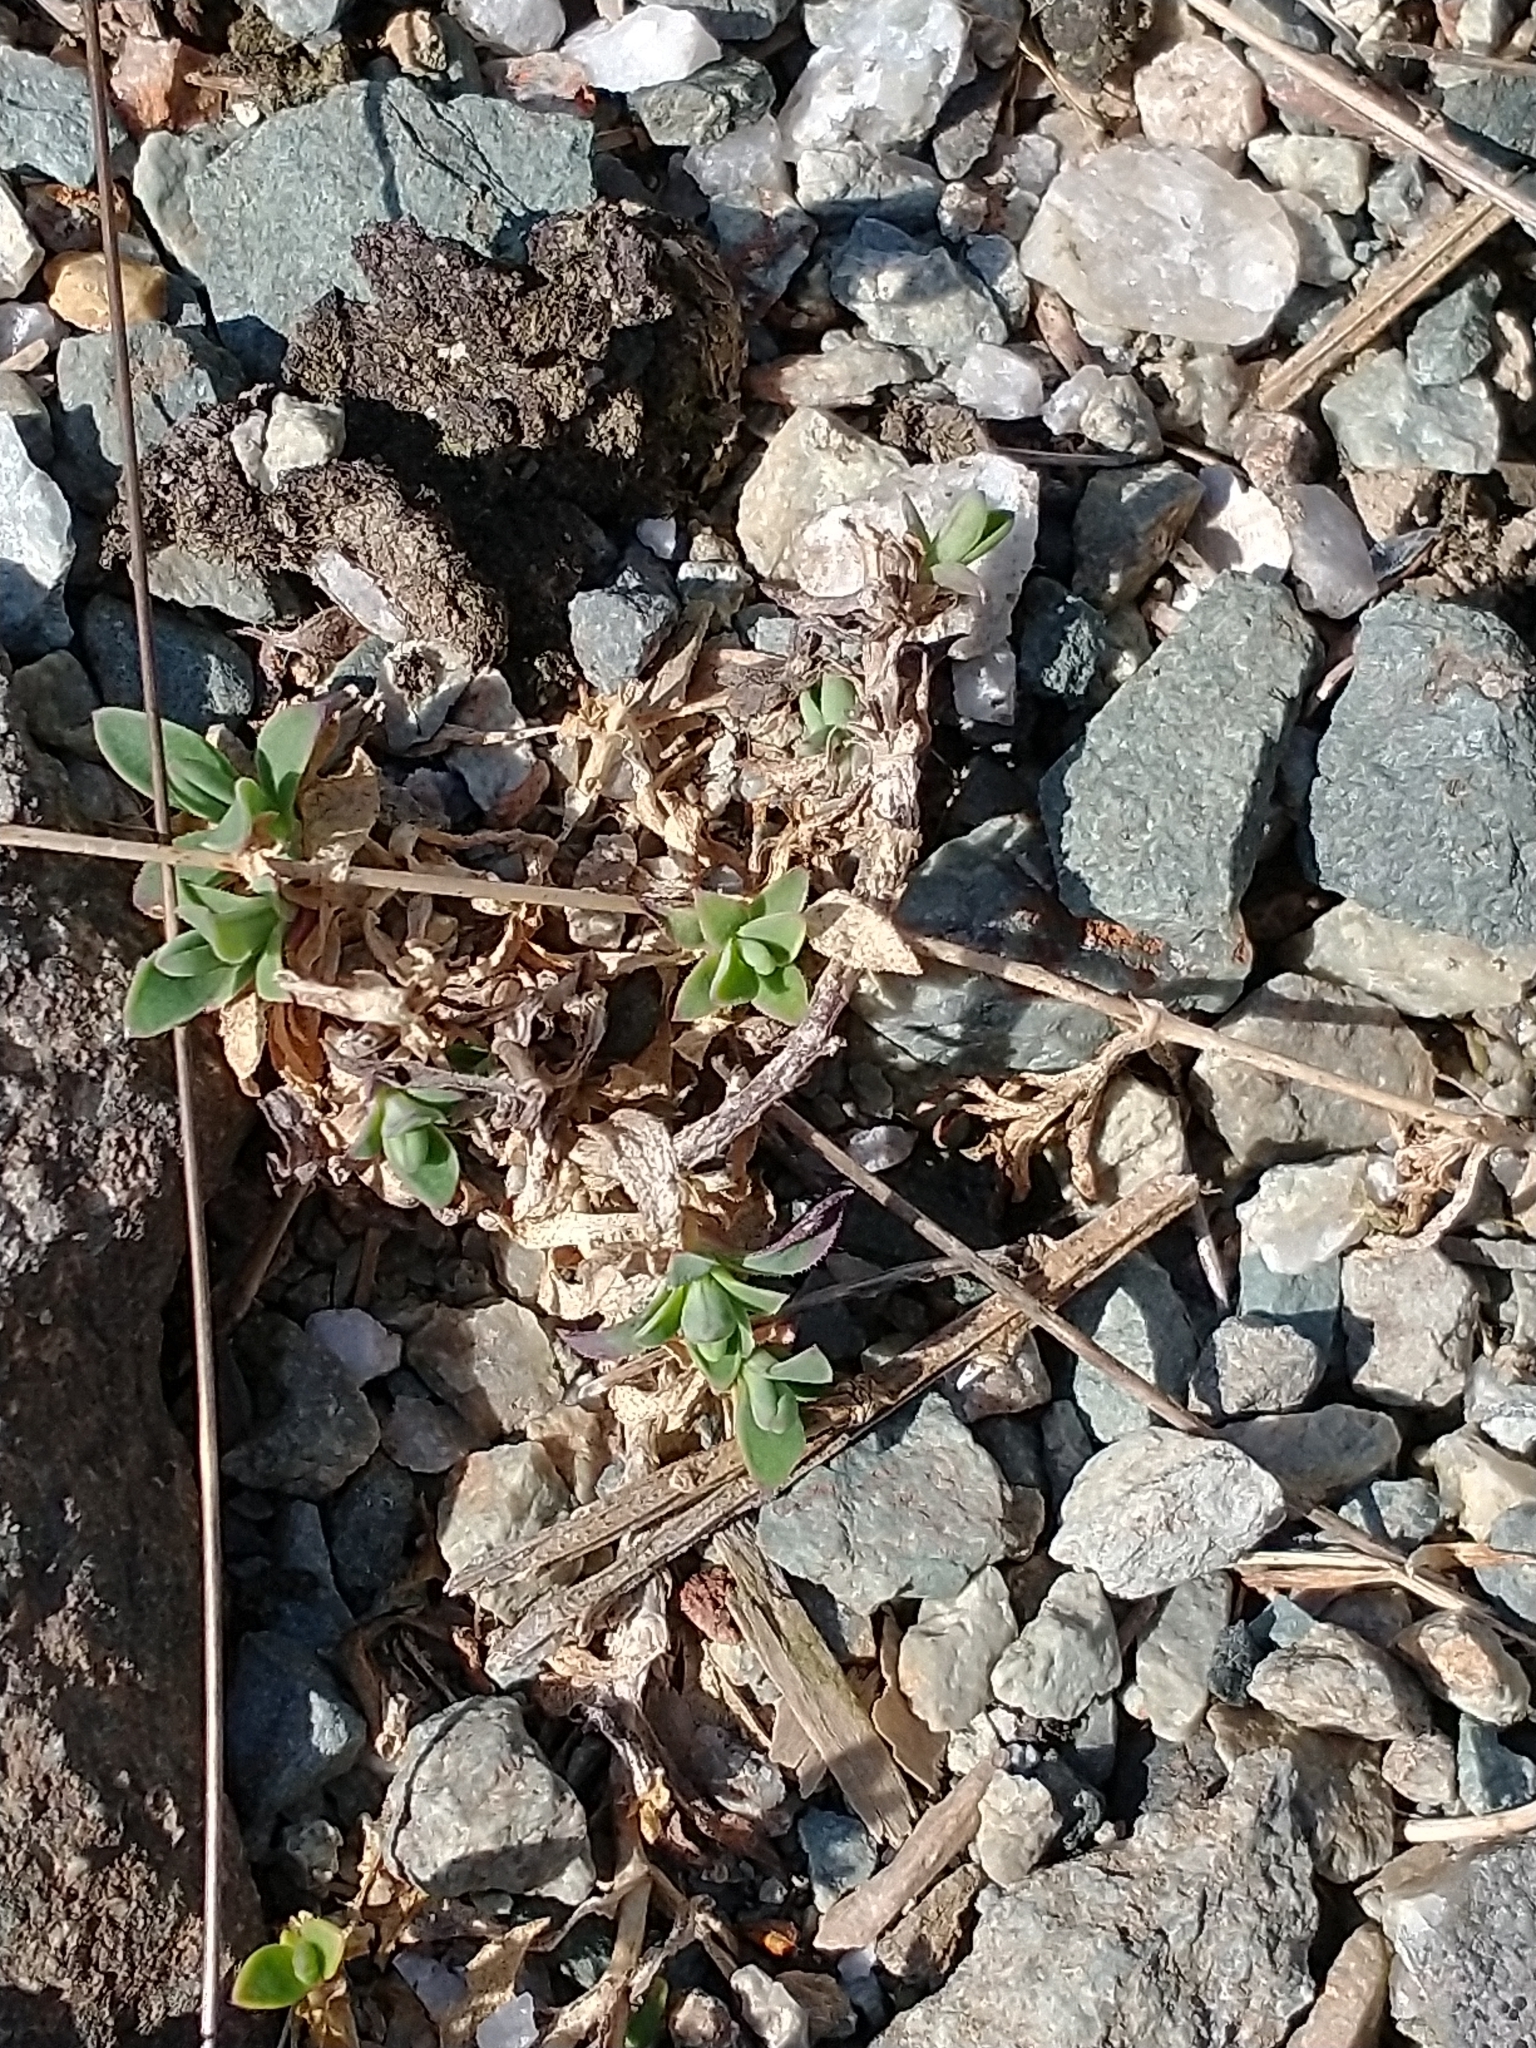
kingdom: Plantae
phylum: Tracheophyta
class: Magnoliopsida
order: Caryophyllales
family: Caryophyllaceae
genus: Silene
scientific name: Silene uniflora
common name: Sea campion
